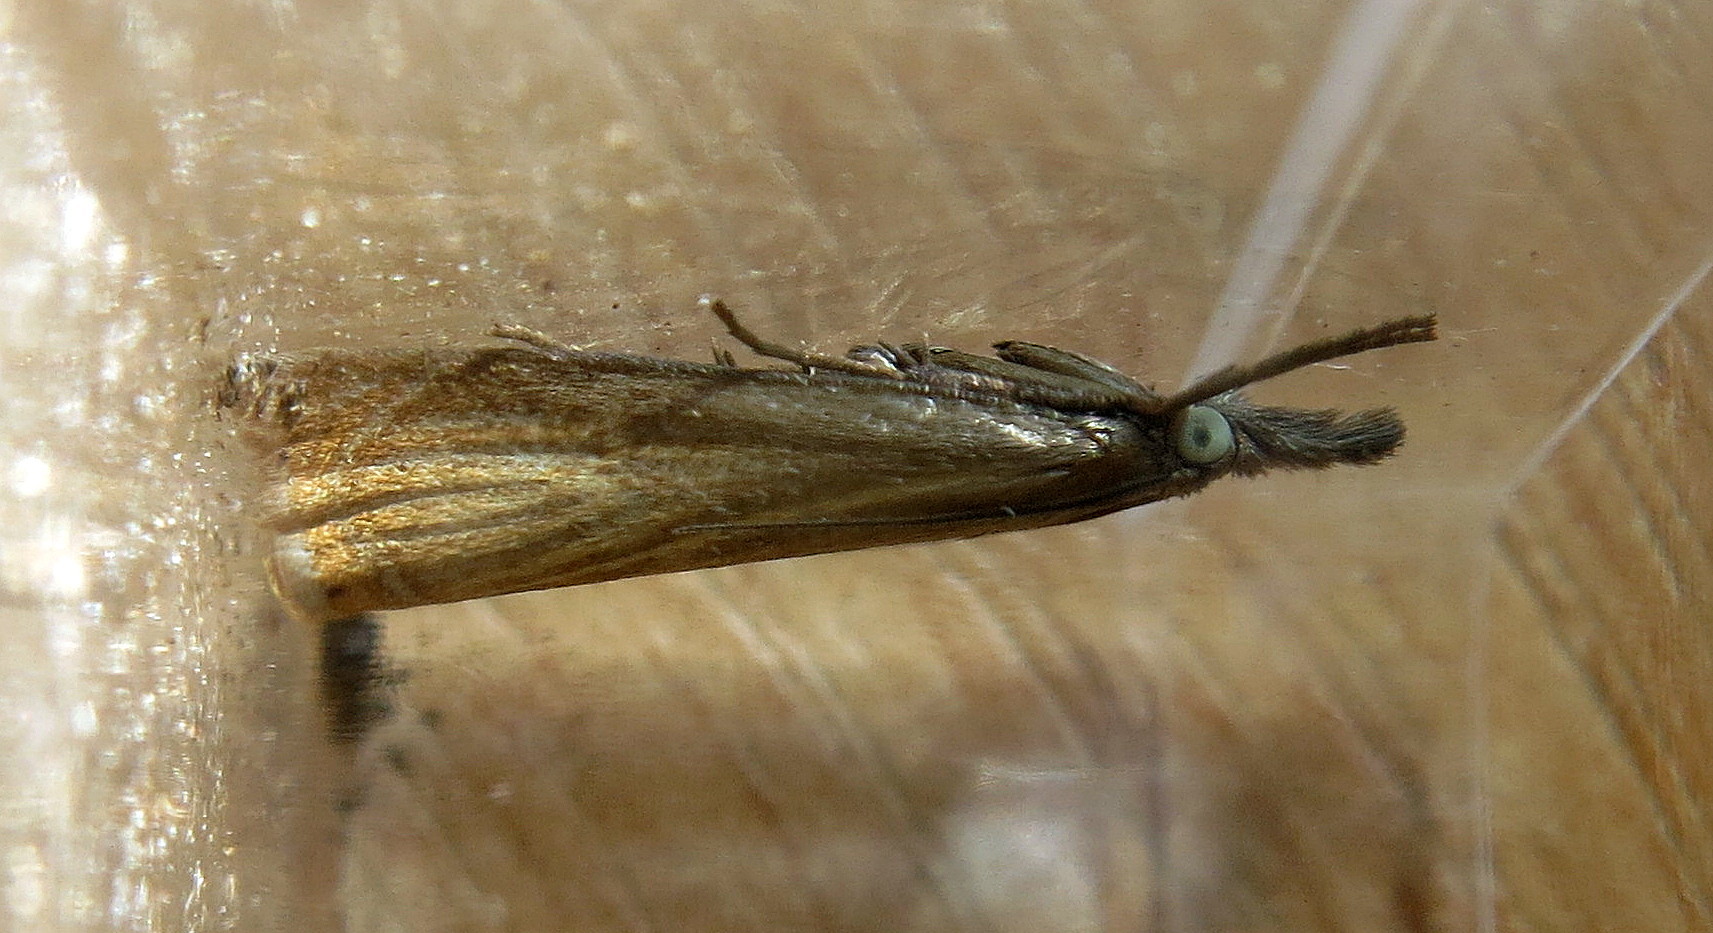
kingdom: Animalia
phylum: Arthropoda
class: Insecta
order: Lepidoptera
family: Crambidae
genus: Chrysoteuchia
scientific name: Chrysoteuchia culmella
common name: Garden grass-veneer
